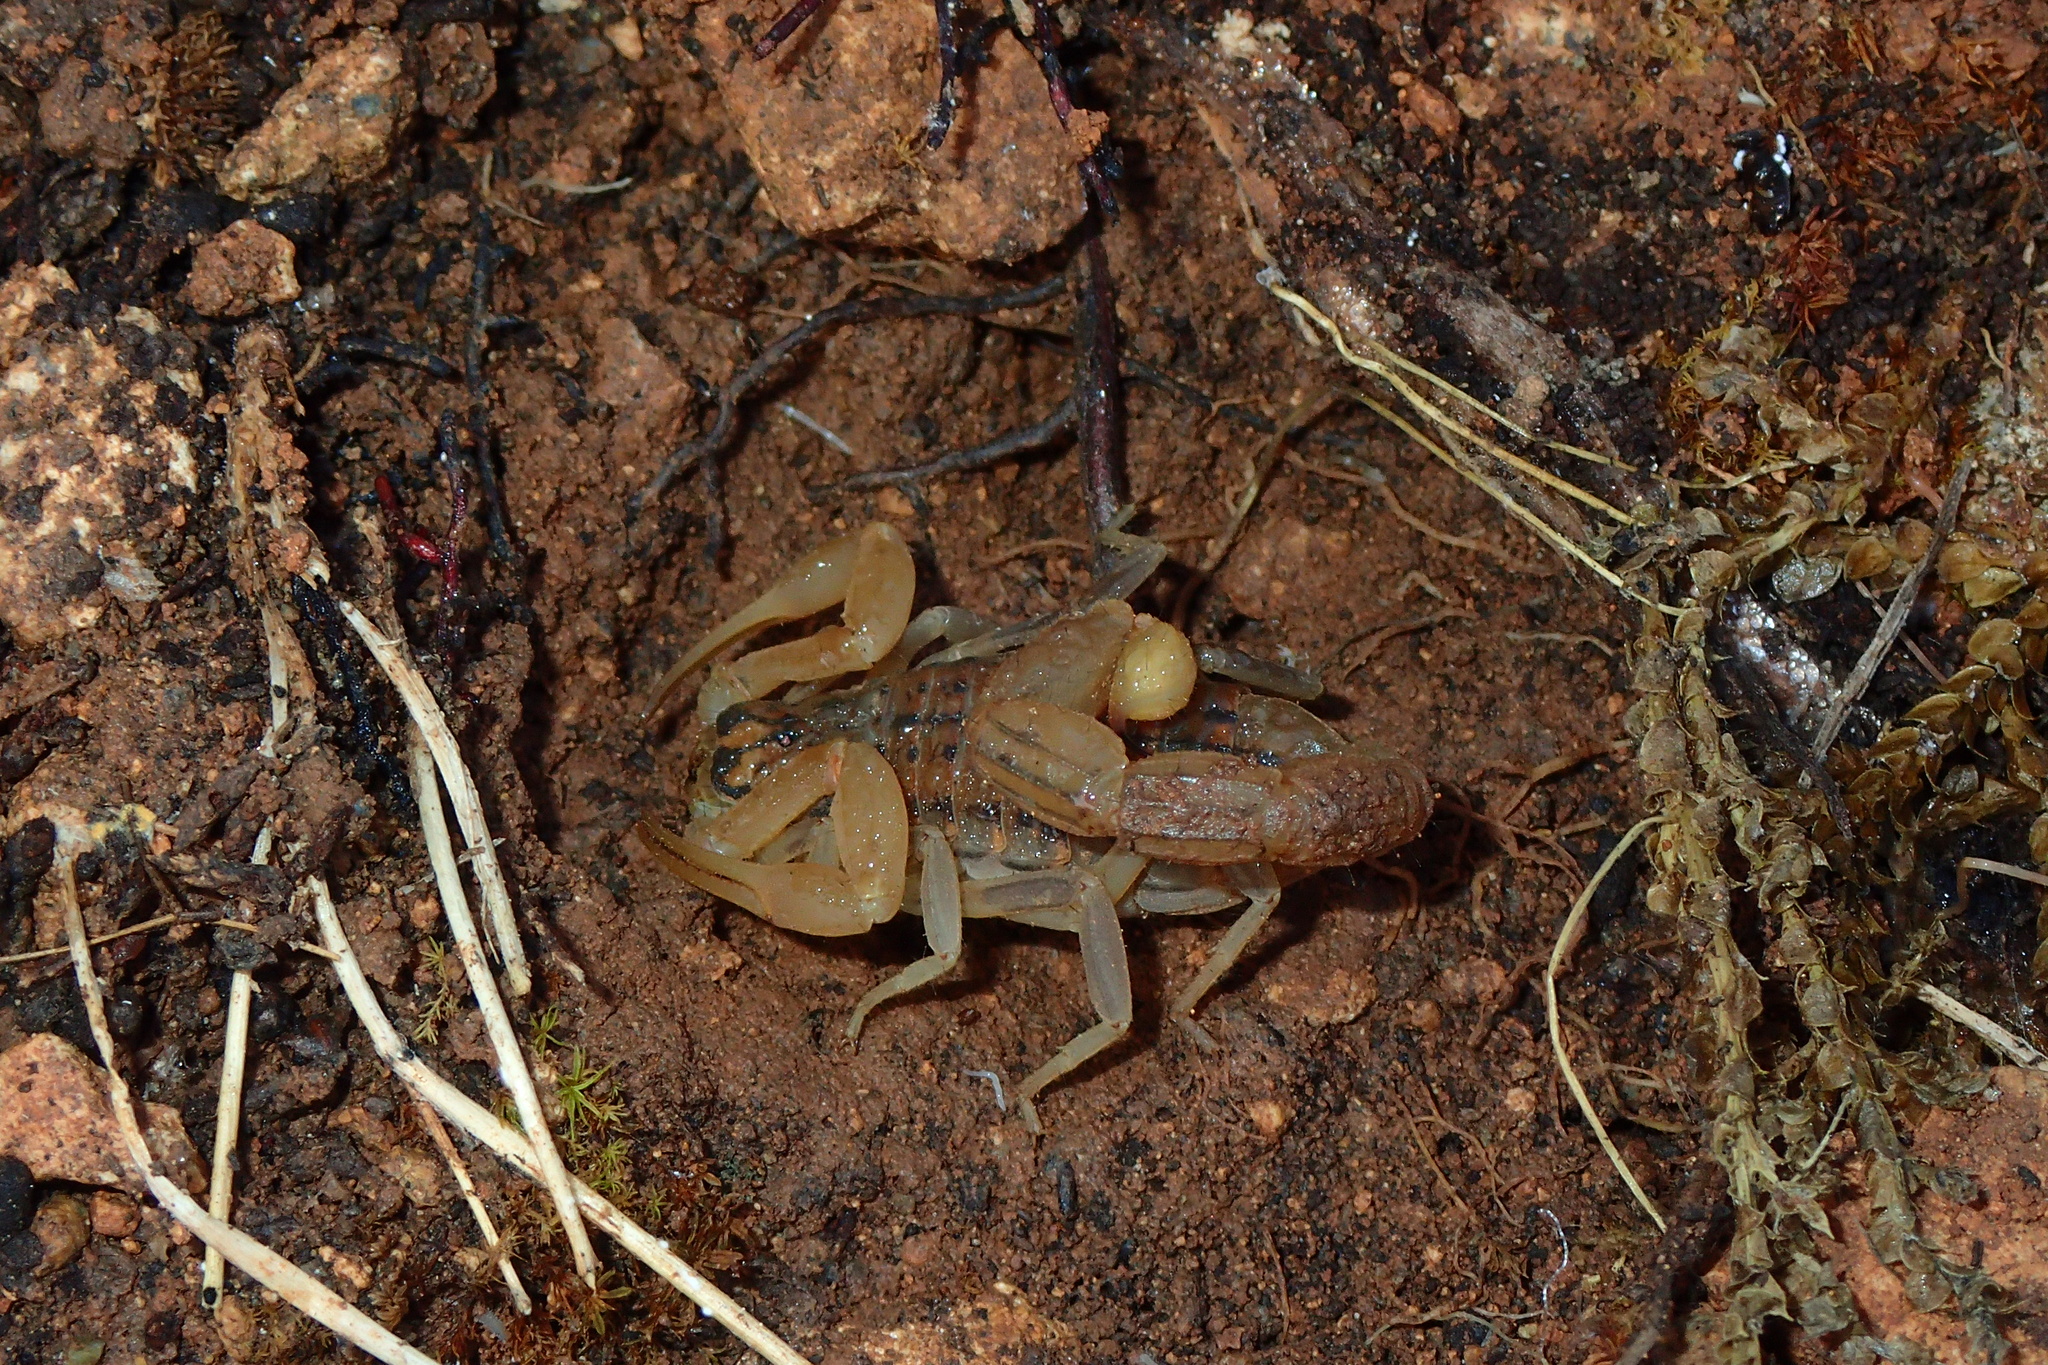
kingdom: Animalia
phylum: Arthropoda
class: Arachnida
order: Scorpiones
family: Buthidae
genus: Aegaeobuthus
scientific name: Aegaeobuthus cyprius
